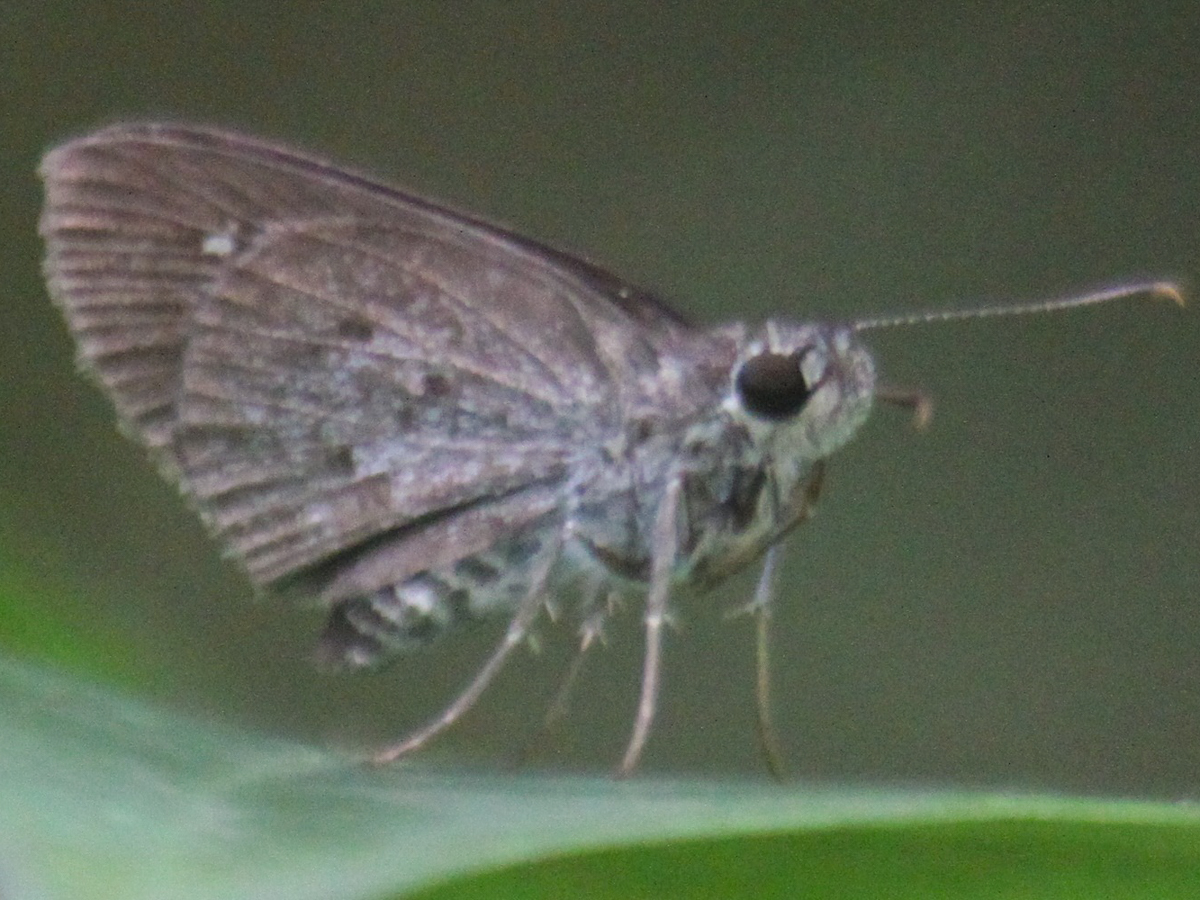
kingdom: Animalia
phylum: Arthropoda
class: Insecta
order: Lepidoptera
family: Hesperiidae
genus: Suastus
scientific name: Suastus minuta
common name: Small palm bob
